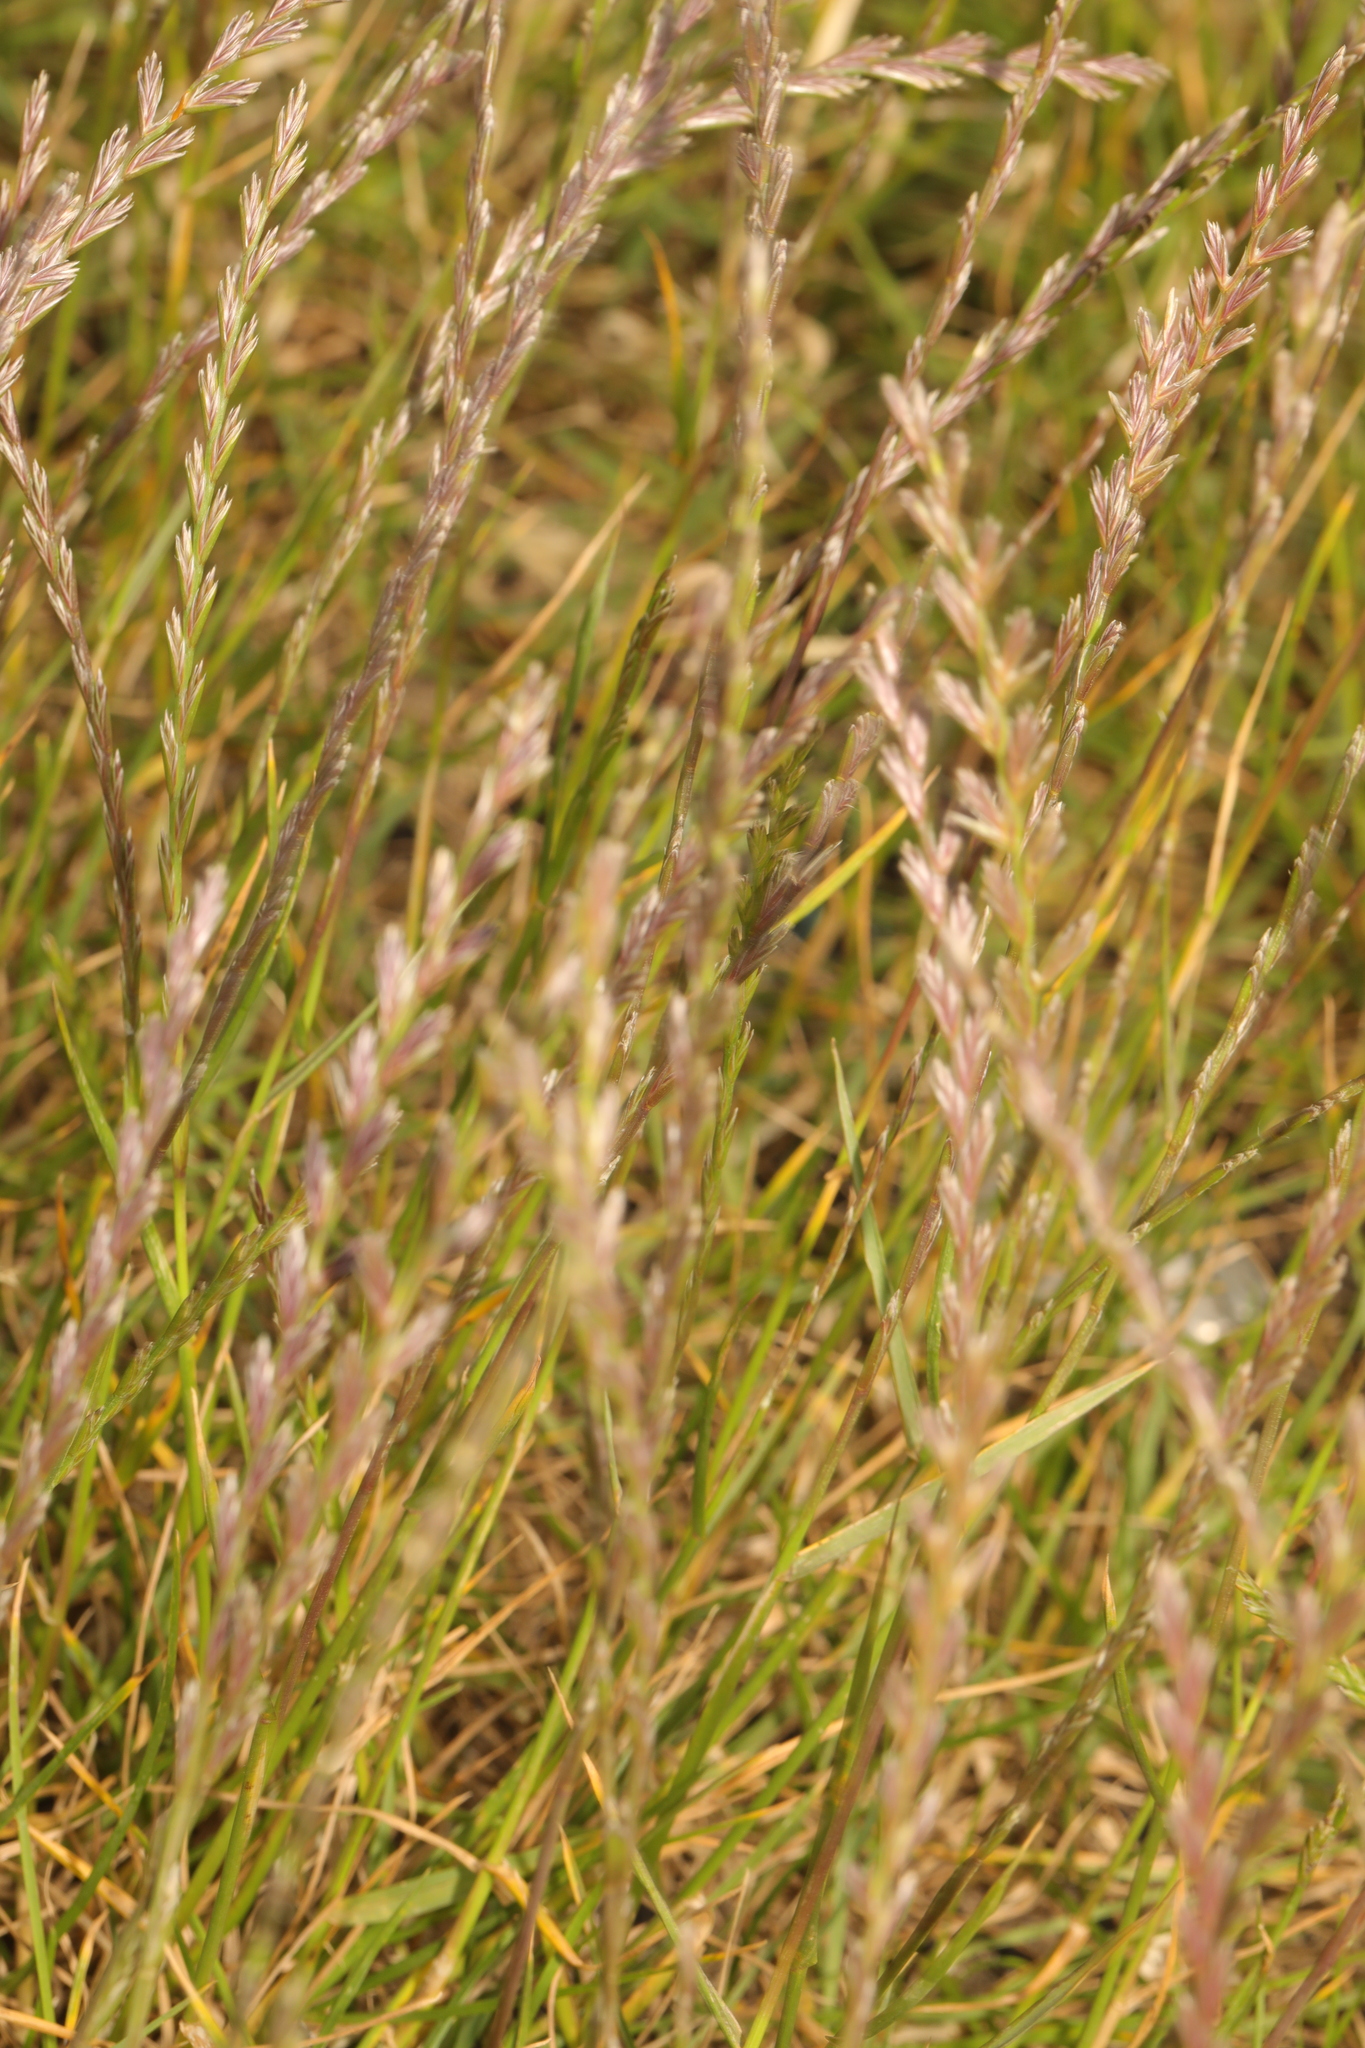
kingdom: Plantae
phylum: Tracheophyta
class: Liliopsida
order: Poales
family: Poaceae
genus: Lolium
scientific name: Lolium perenne
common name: Perennial ryegrass
